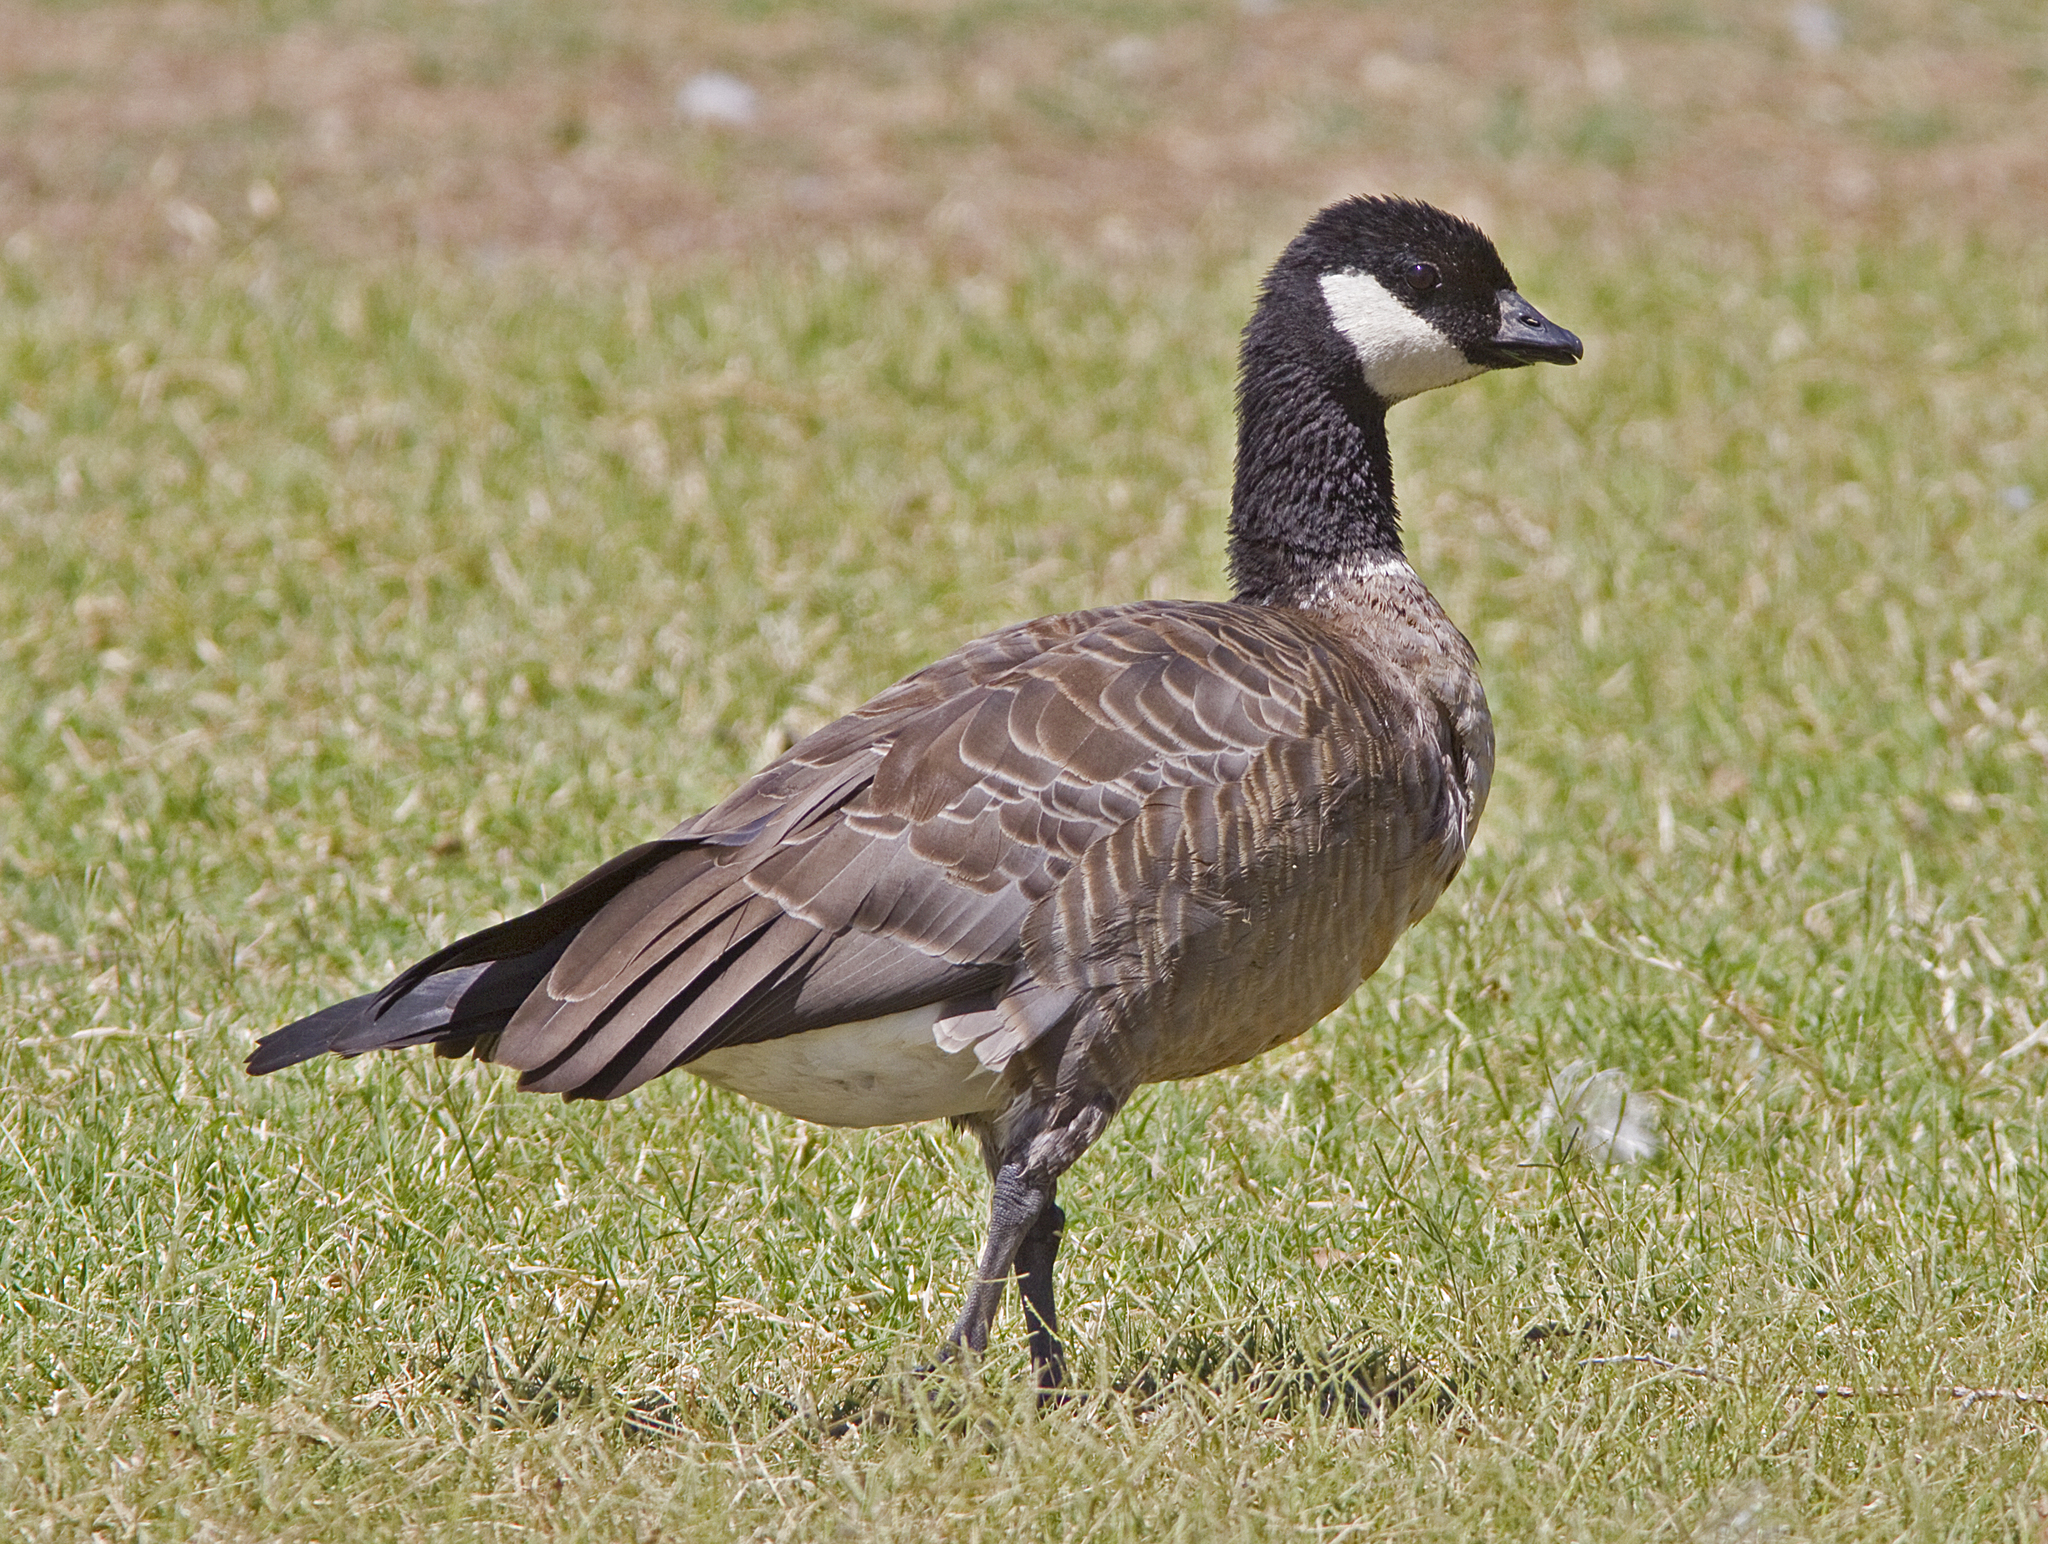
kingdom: Animalia
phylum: Chordata
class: Aves
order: Anseriformes
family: Anatidae
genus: Branta
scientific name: Branta hutchinsii
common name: Cackling goose
